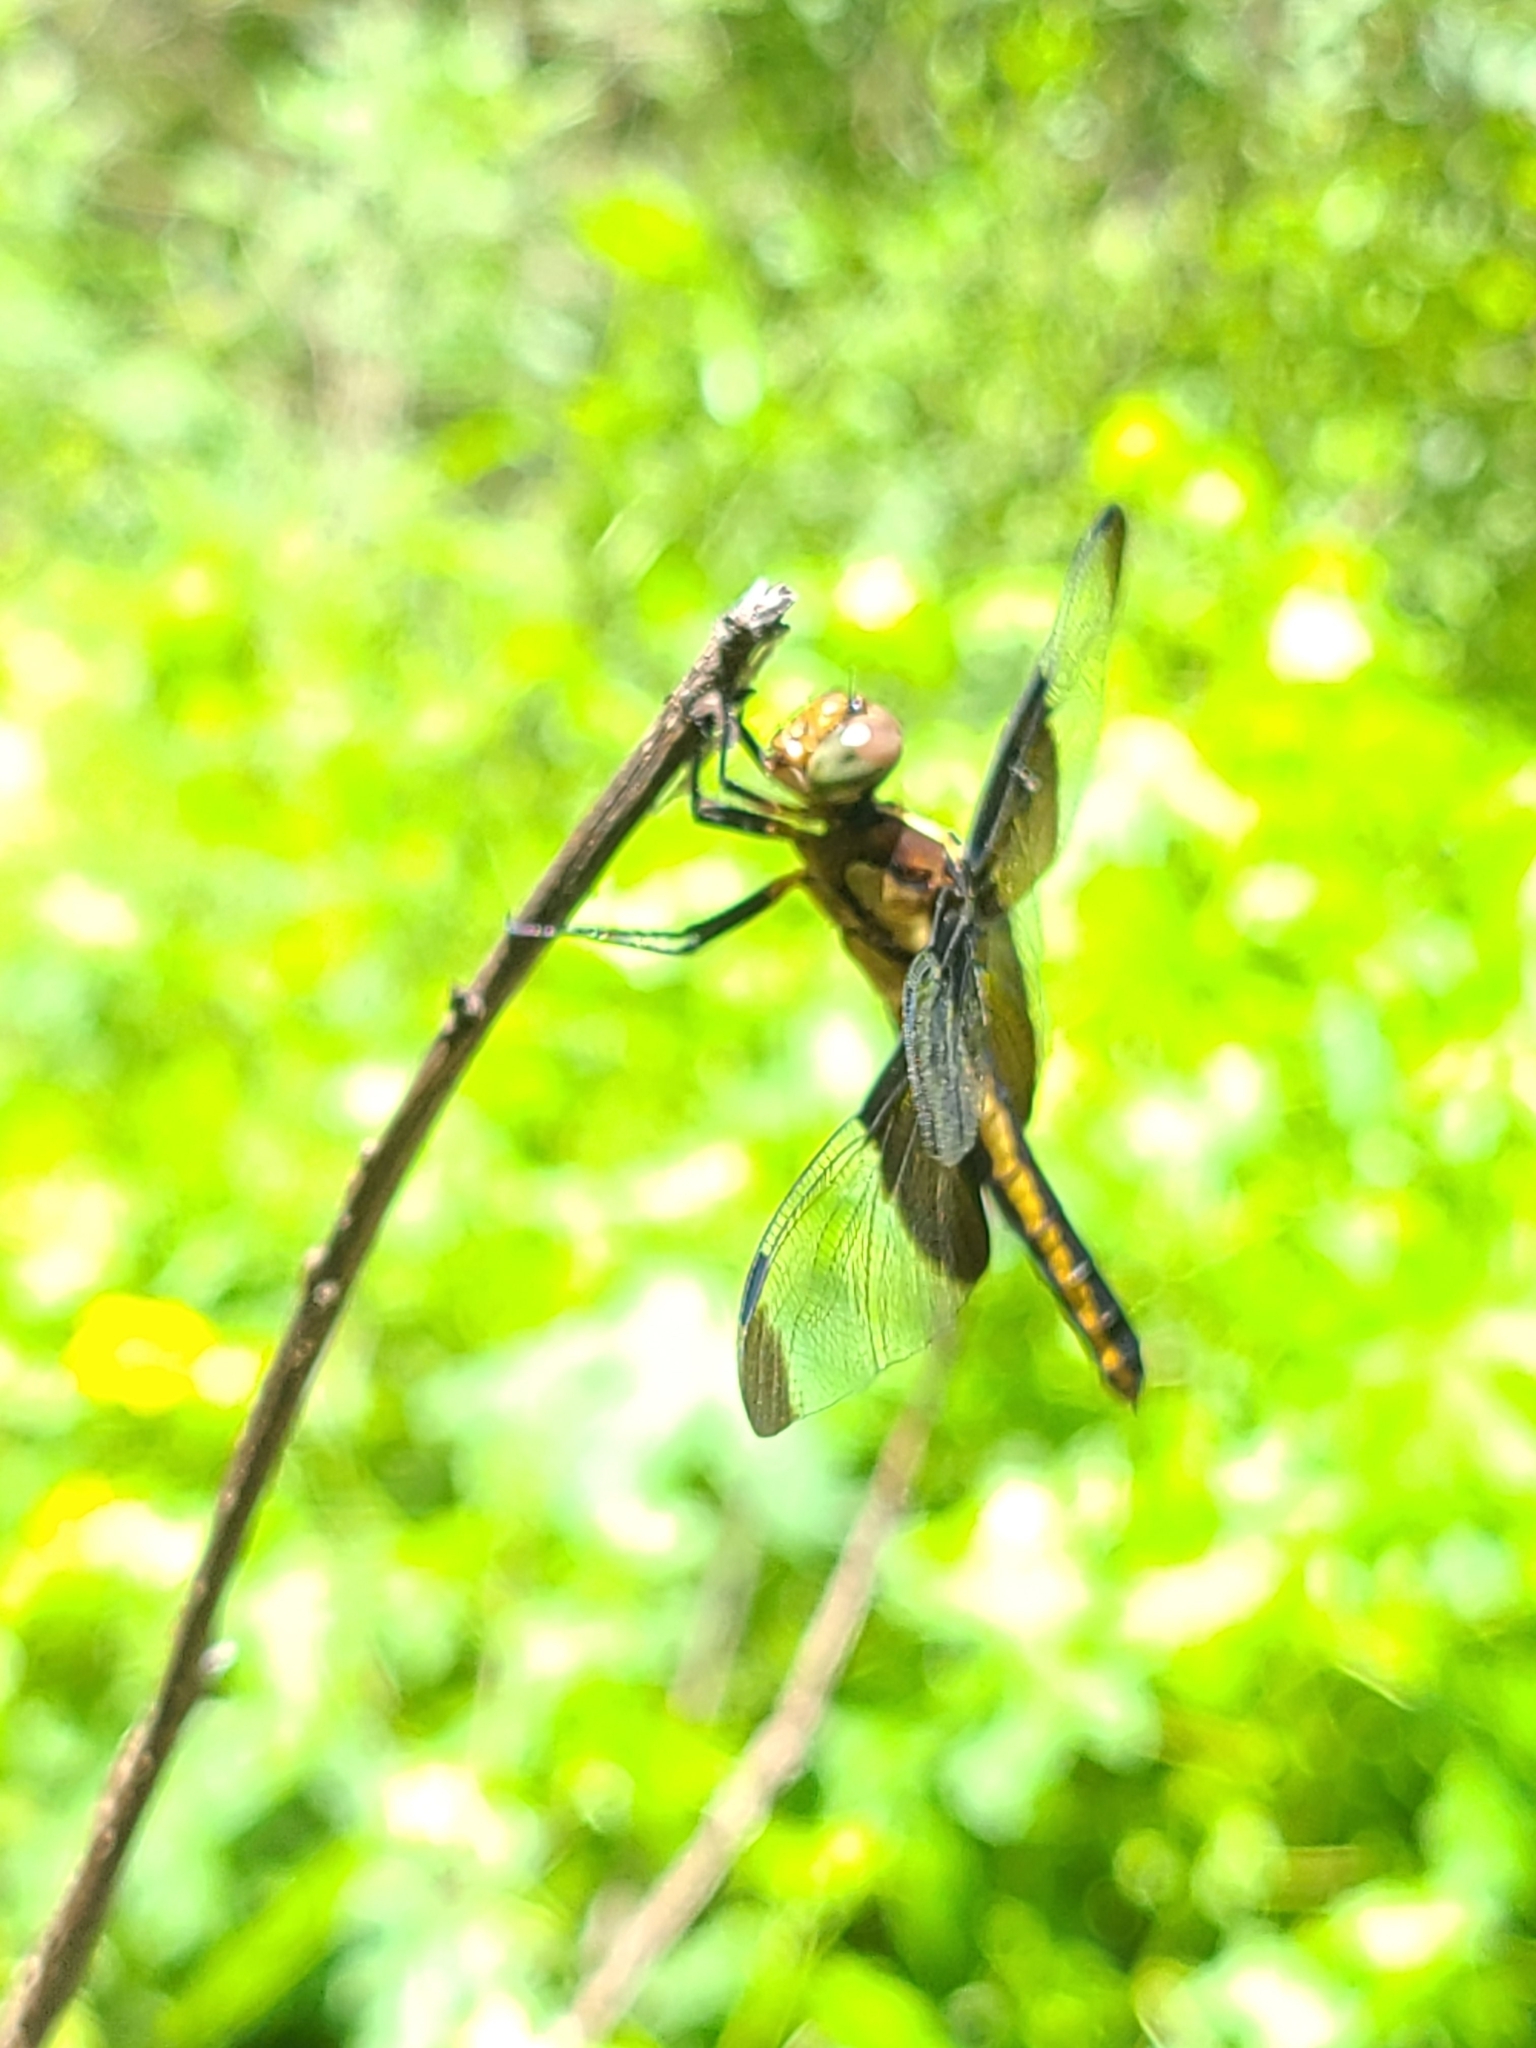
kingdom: Animalia
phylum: Arthropoda
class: Insecta
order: Odonata
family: Libellulidae
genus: Libellula
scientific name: Libellula luctuosa
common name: Widow skimmer
